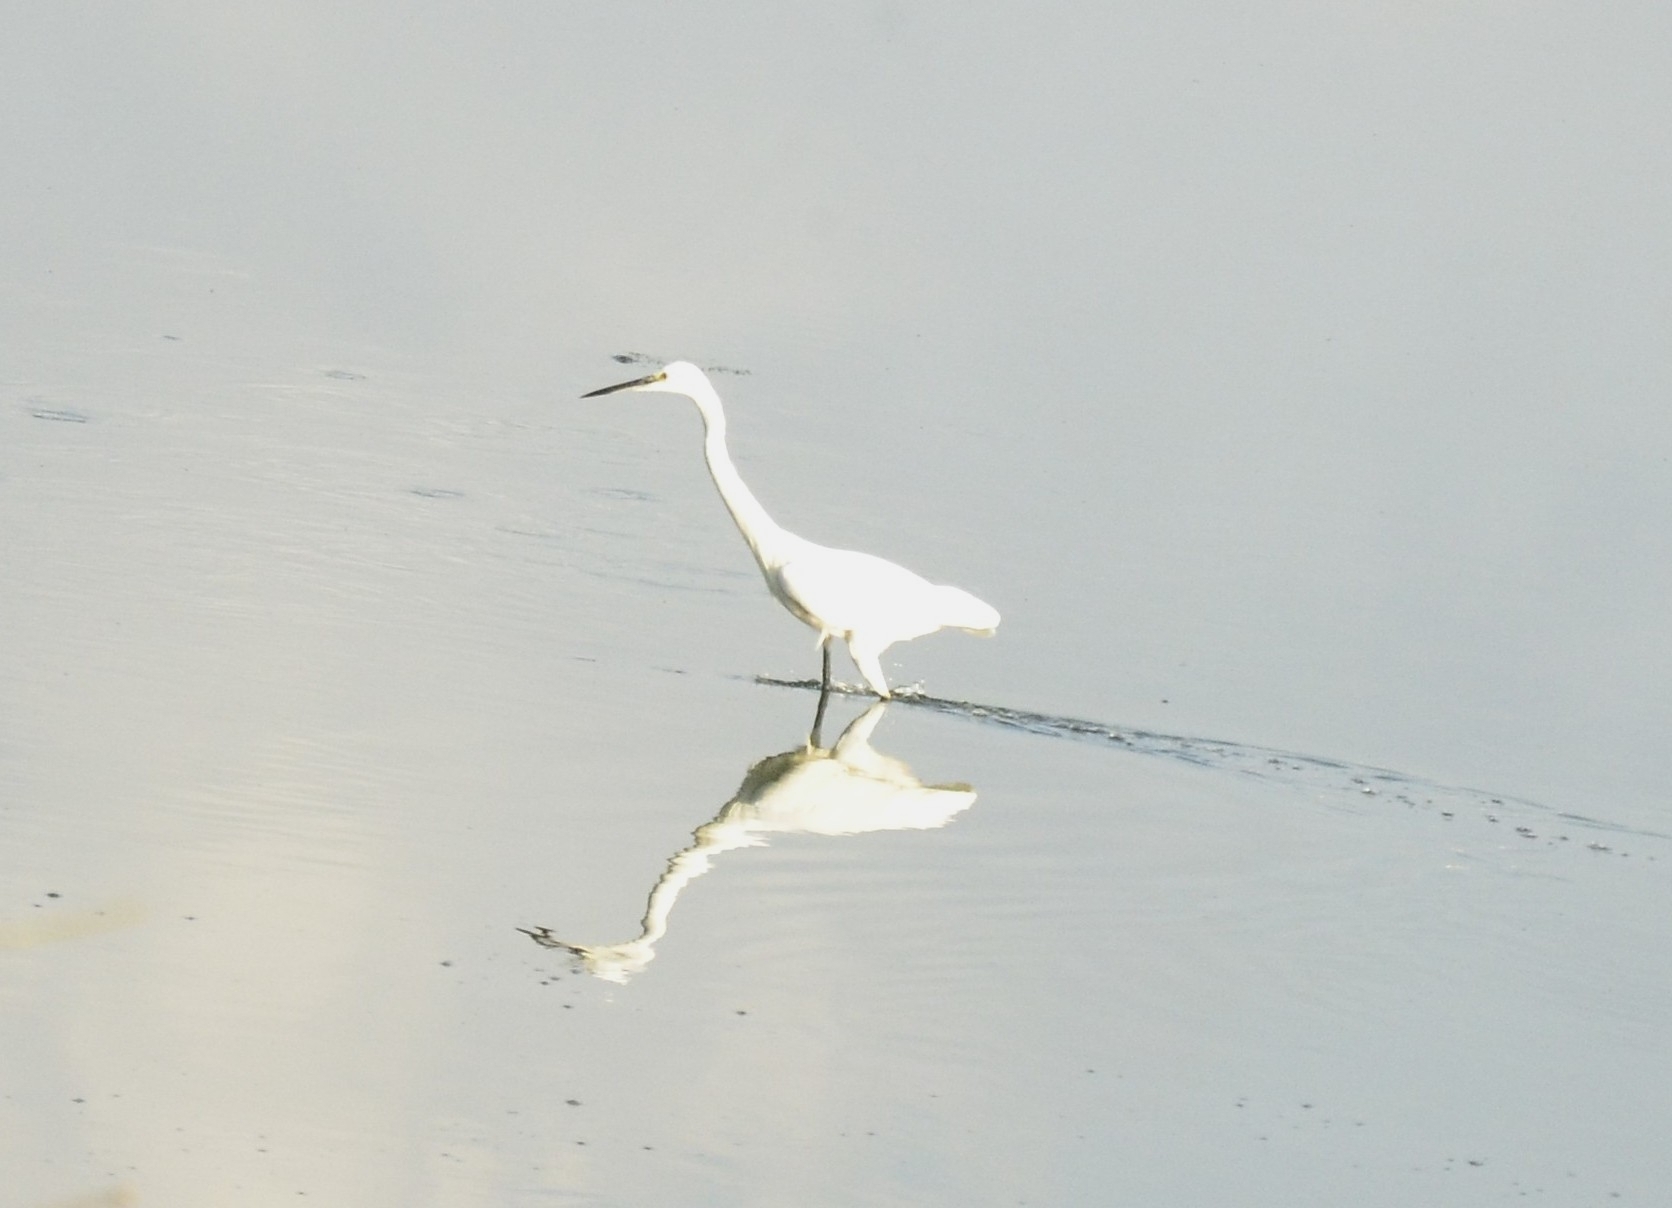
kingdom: Animalia
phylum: Chordata
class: Aves
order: Pelecaniformes
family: Ardeidae
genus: Egretta
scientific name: Egretta garzetta
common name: Little egret
